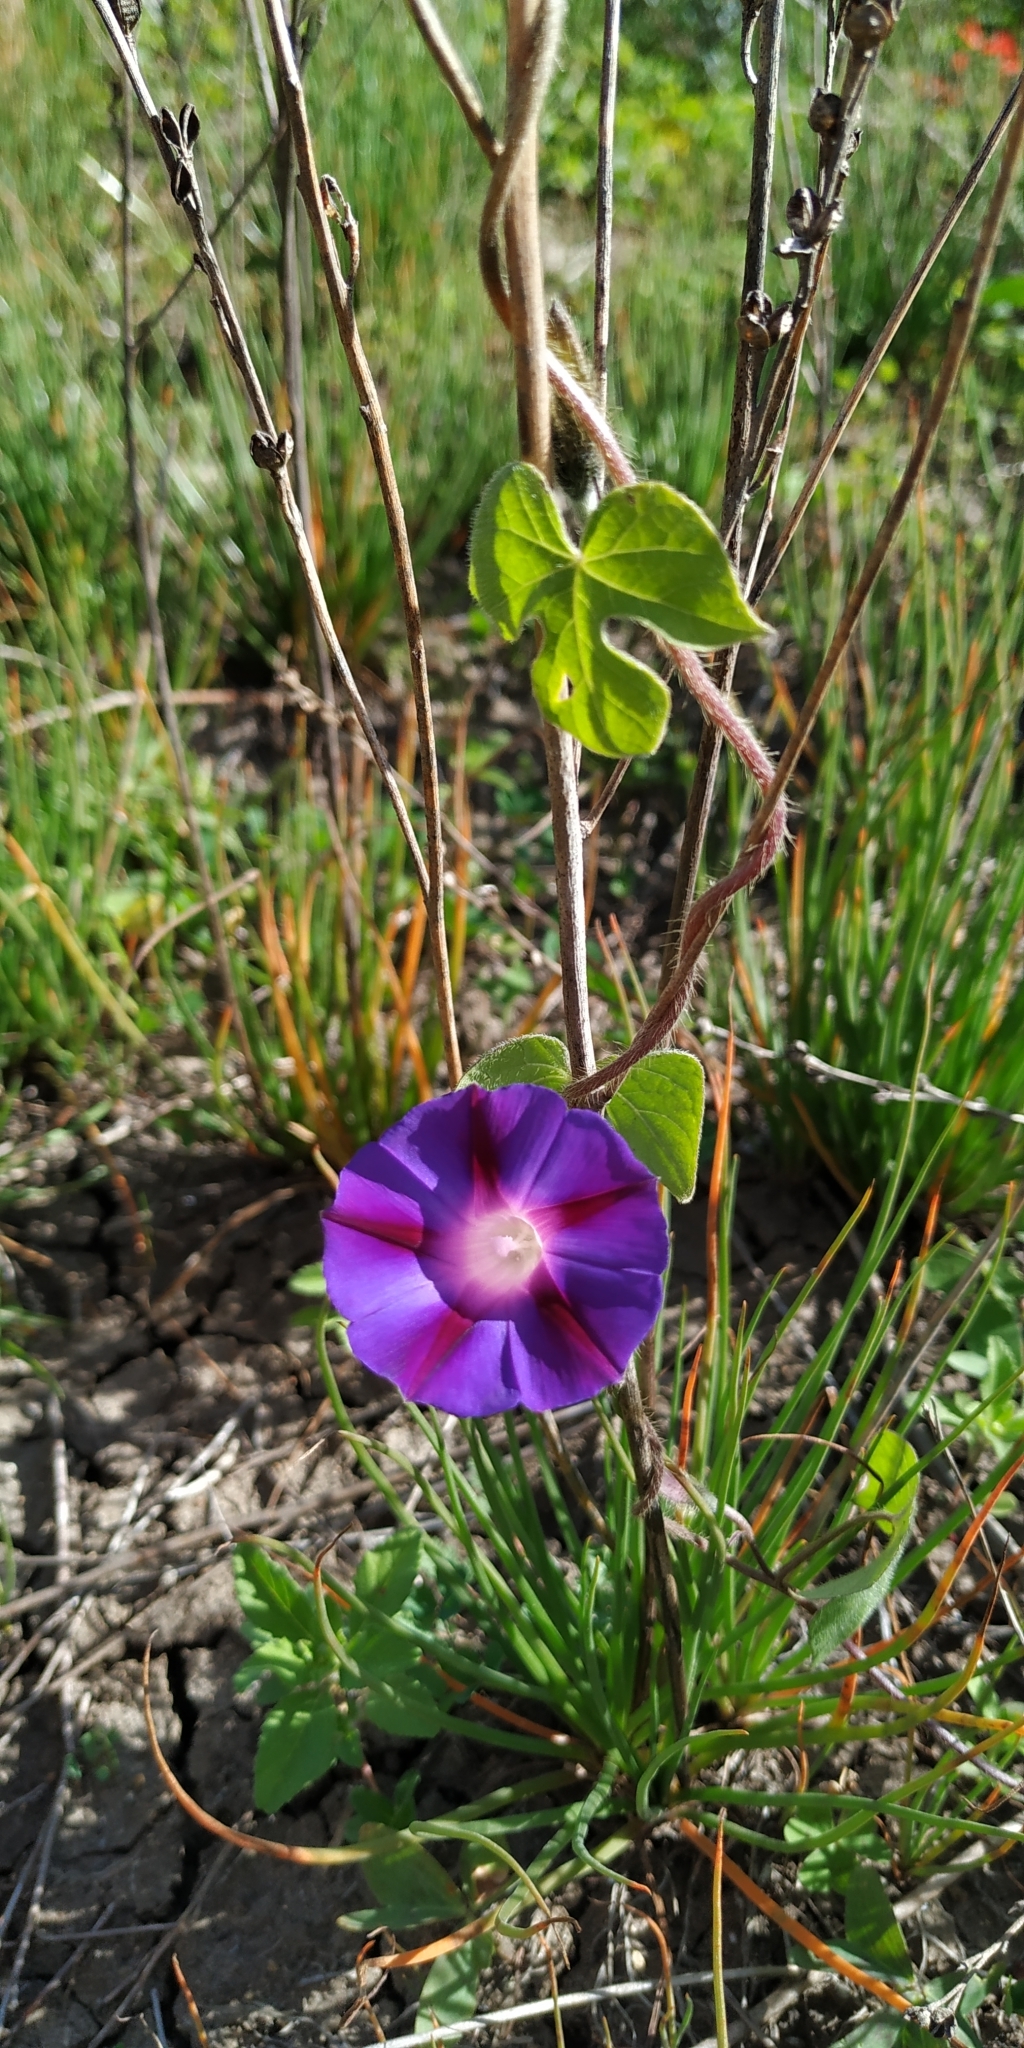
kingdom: Plantae
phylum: Tracheophyta
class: Magnoliopsida
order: Solanales
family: Convolvulaceae
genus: Ipomoea
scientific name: Ipomoea purpurea
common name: Common morning-glory
